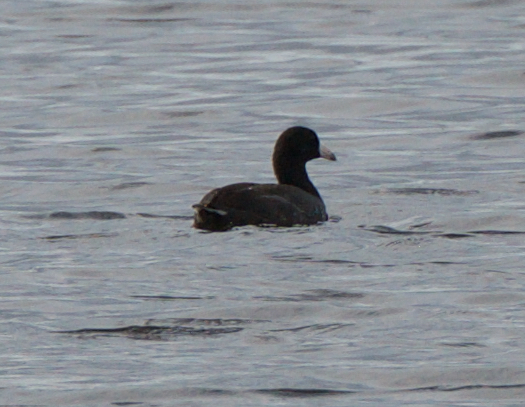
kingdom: Animalia
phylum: Chordata
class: Aves
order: Gruiformes
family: Rallidae
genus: Fulica
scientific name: Fulica americana
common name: American coot
